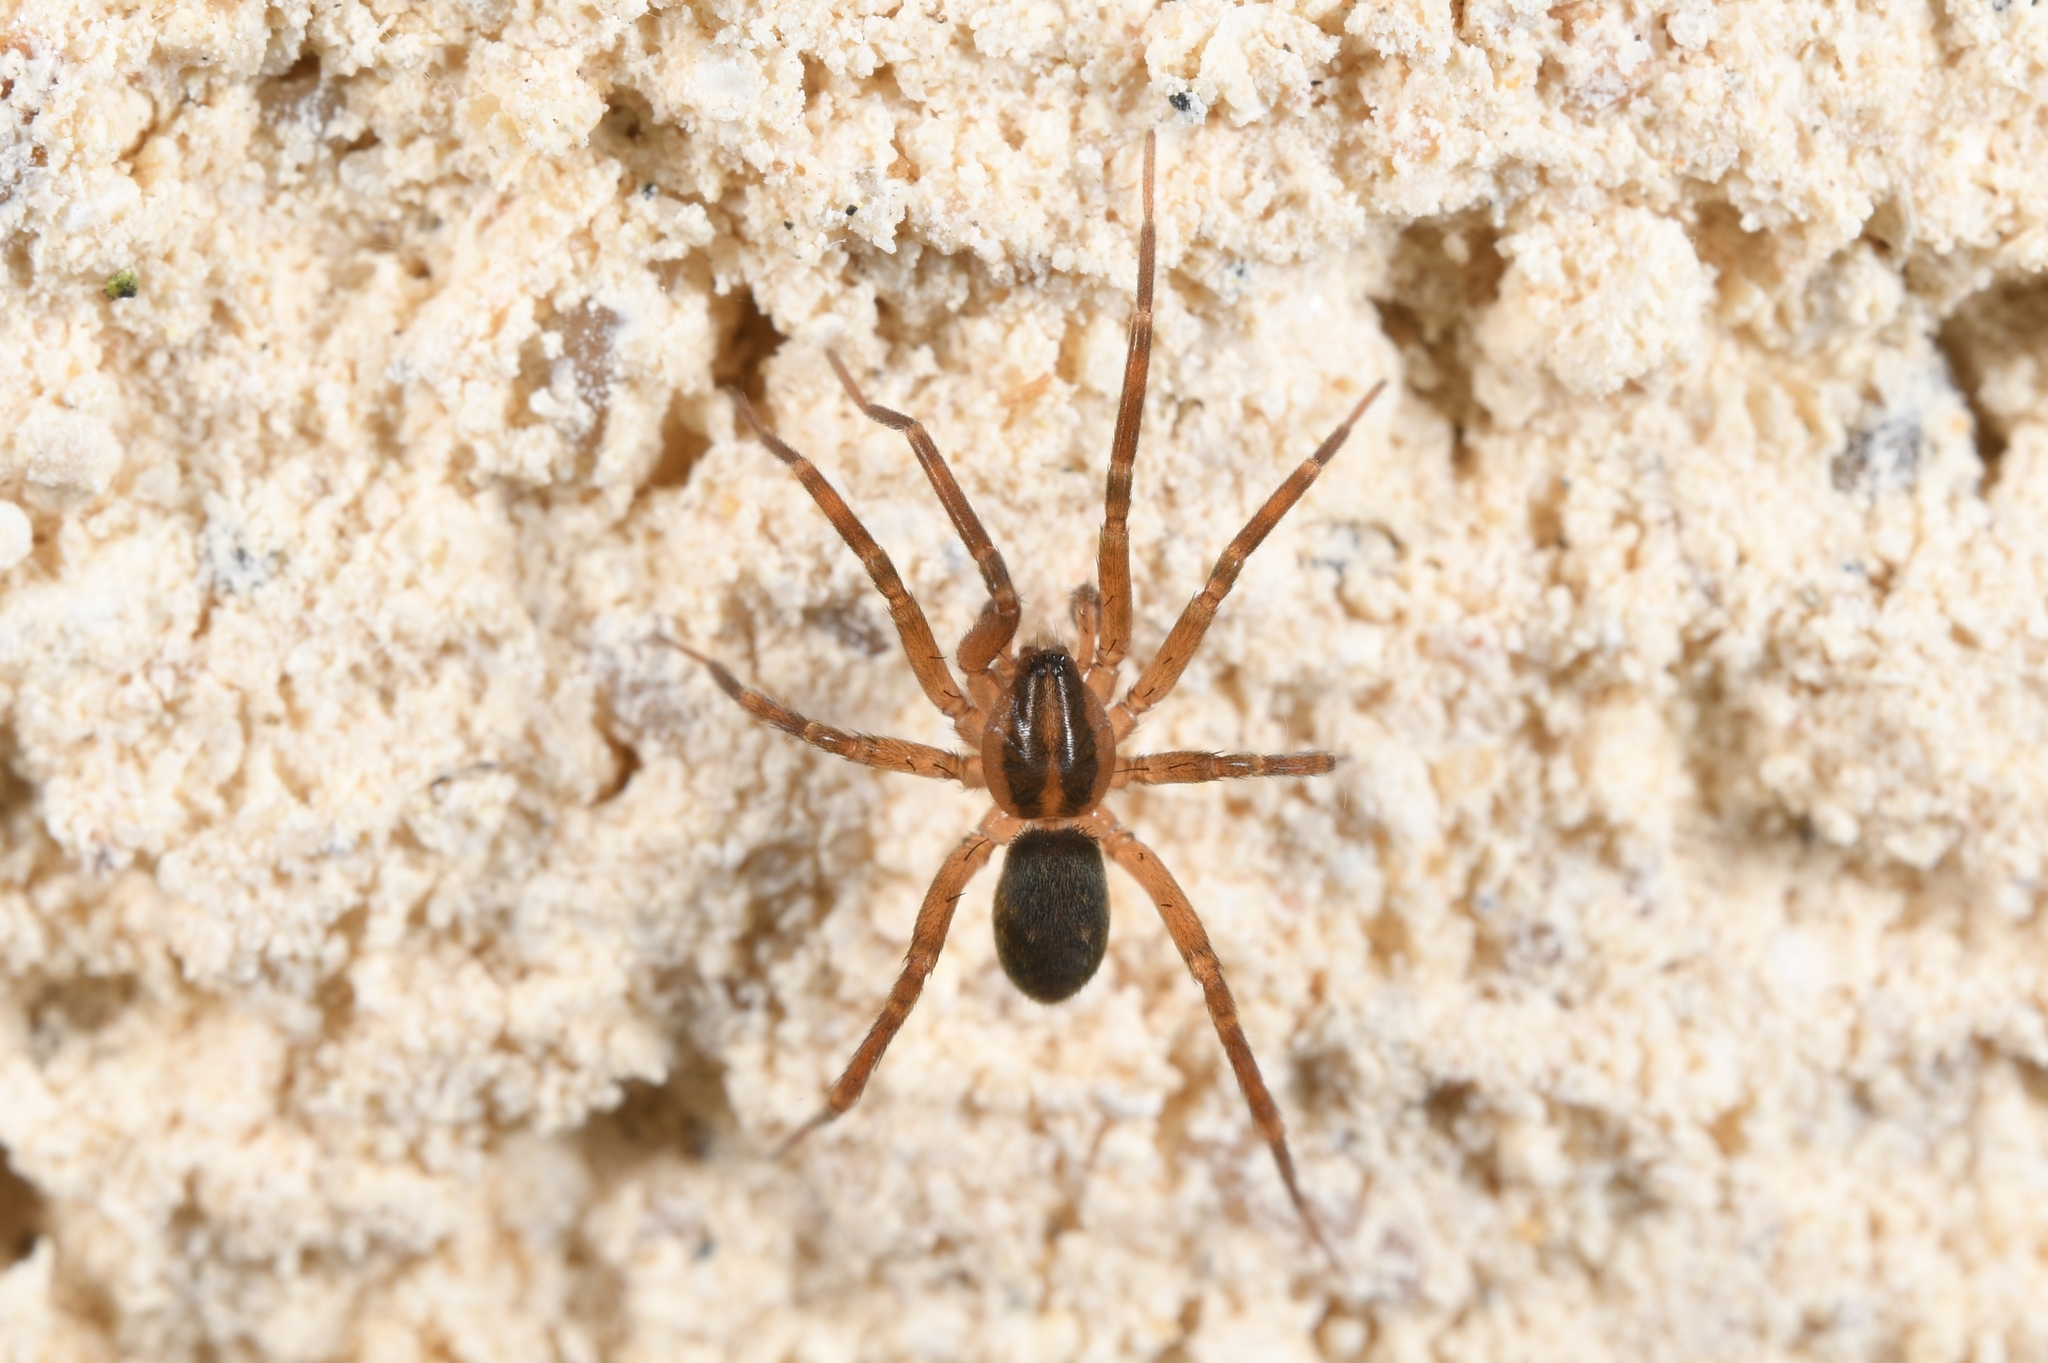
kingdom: Animalia
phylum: Arthropoda
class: Arachnida
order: Araneae
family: Liocranidae
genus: Scotina
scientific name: Scotina celans
